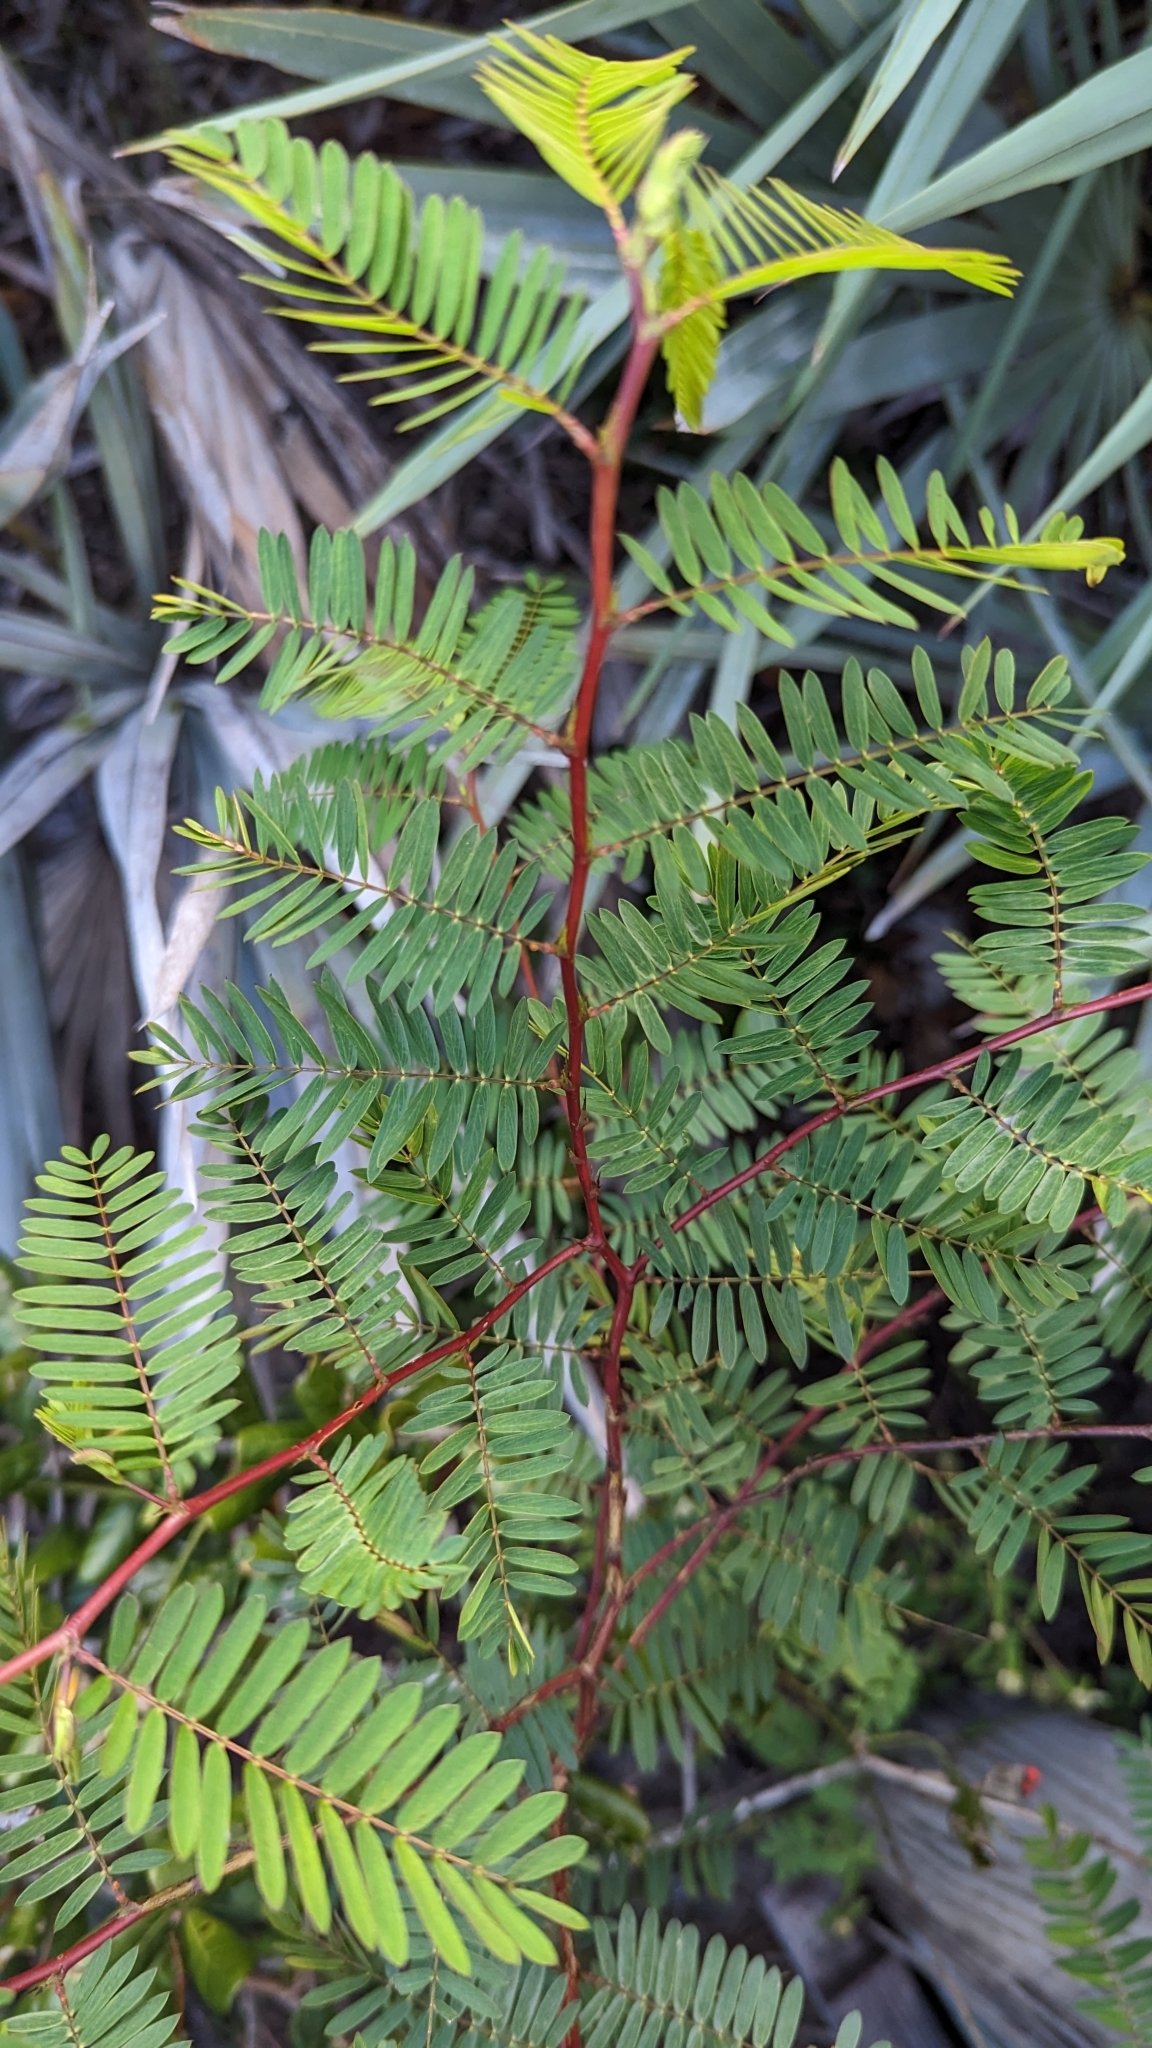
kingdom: Plantae
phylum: Tracheophyta
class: Magnoliopsida
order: Fabales
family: Fabaceae
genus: Chamaecrista
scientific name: Chamaecrista fasciculata
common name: Golden cassia
